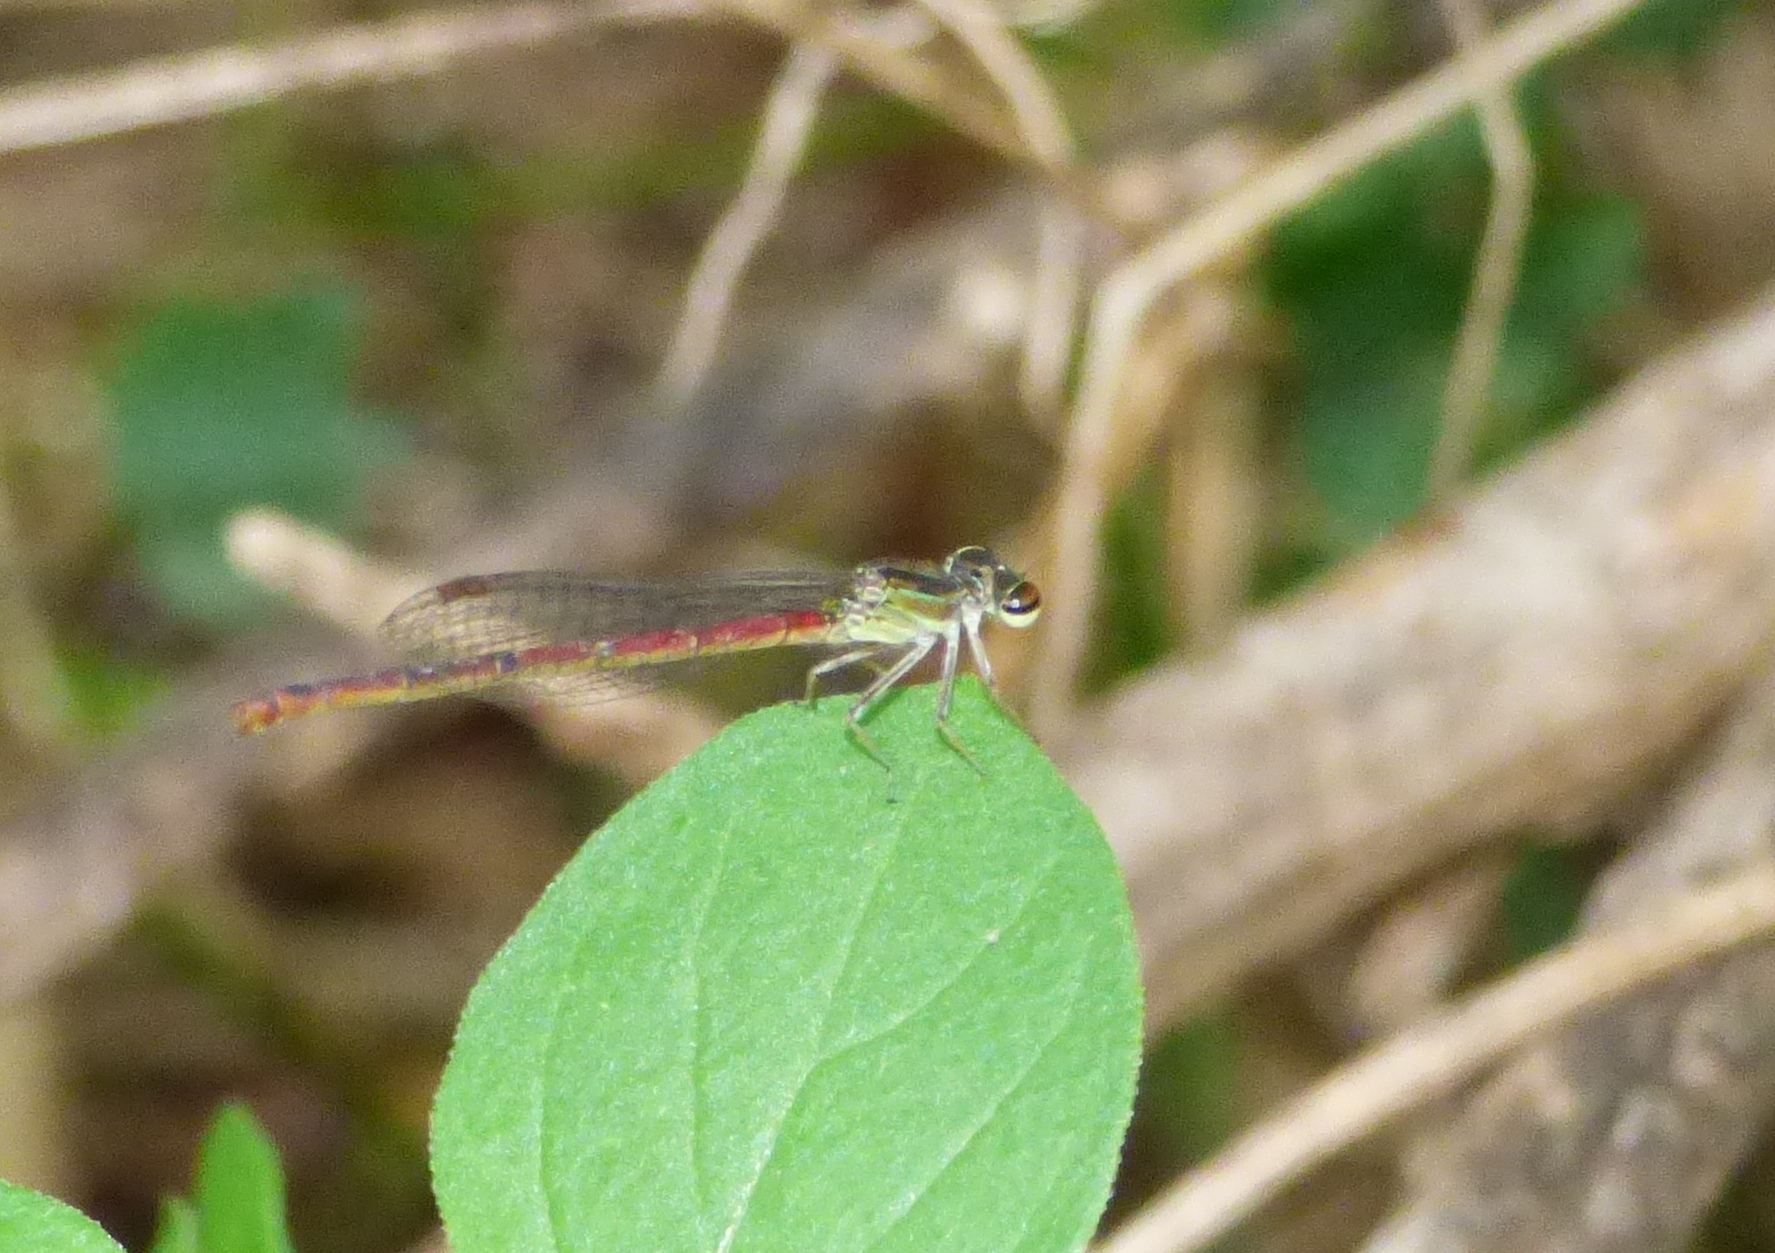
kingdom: Animalia
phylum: Arthropoda
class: Insecta
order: Odonata
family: Coenagrionidae
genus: Telebasis
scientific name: Telebasis willinki
